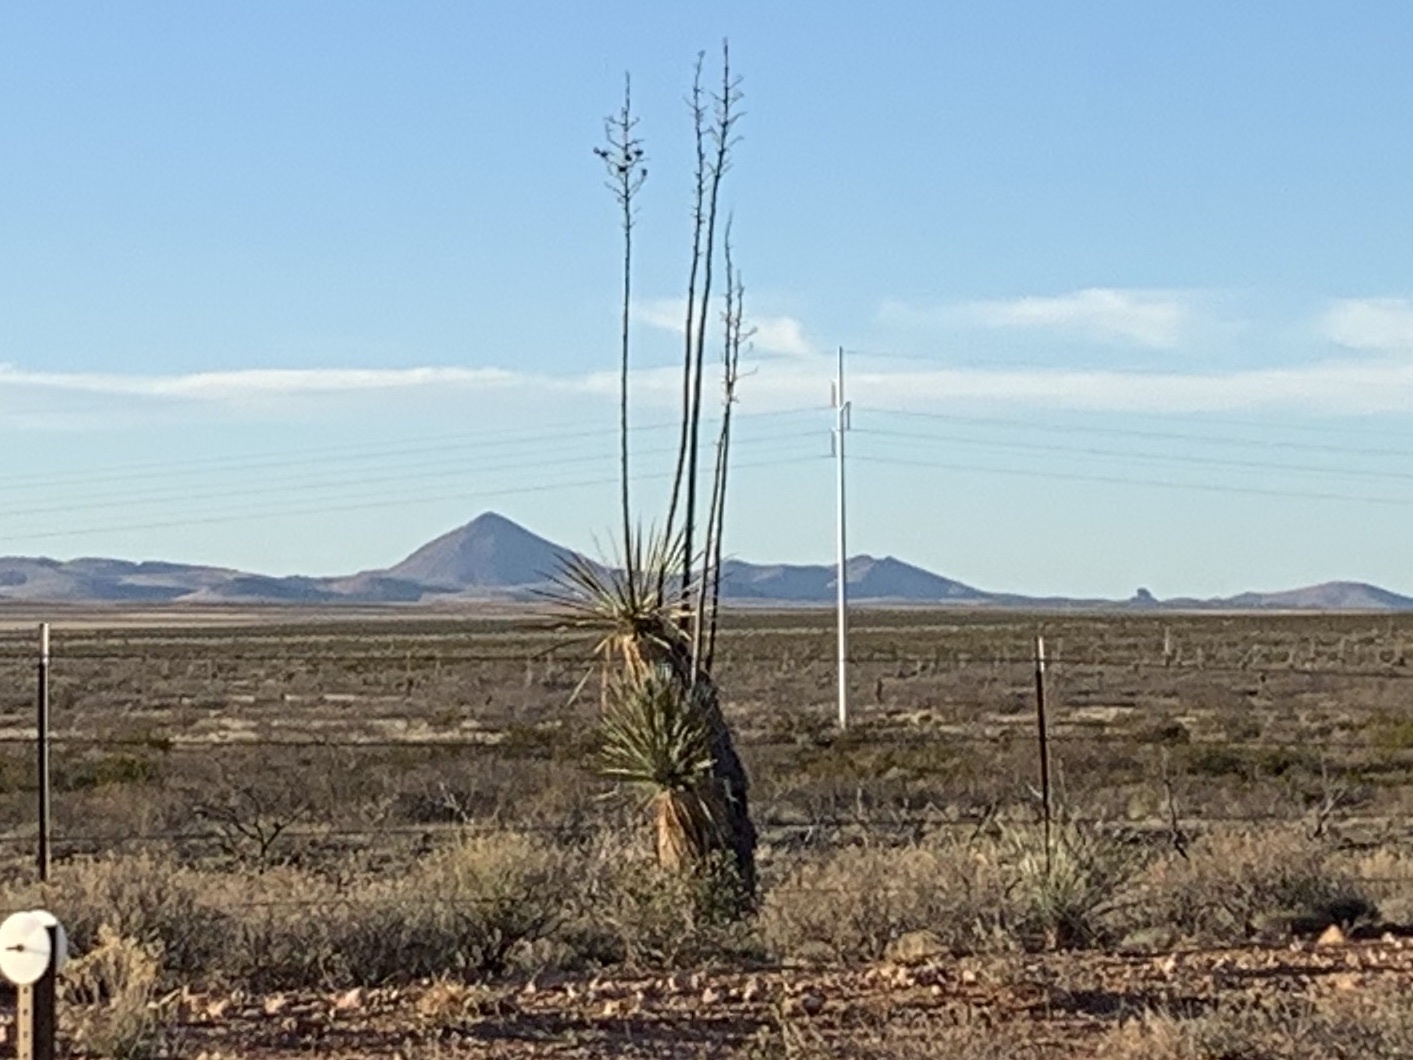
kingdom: Plantae
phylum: Tracheophyta
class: Liliopsida
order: Asparagales
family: Asparagaceae
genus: Yucca
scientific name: Yucca elata
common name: Palmella
